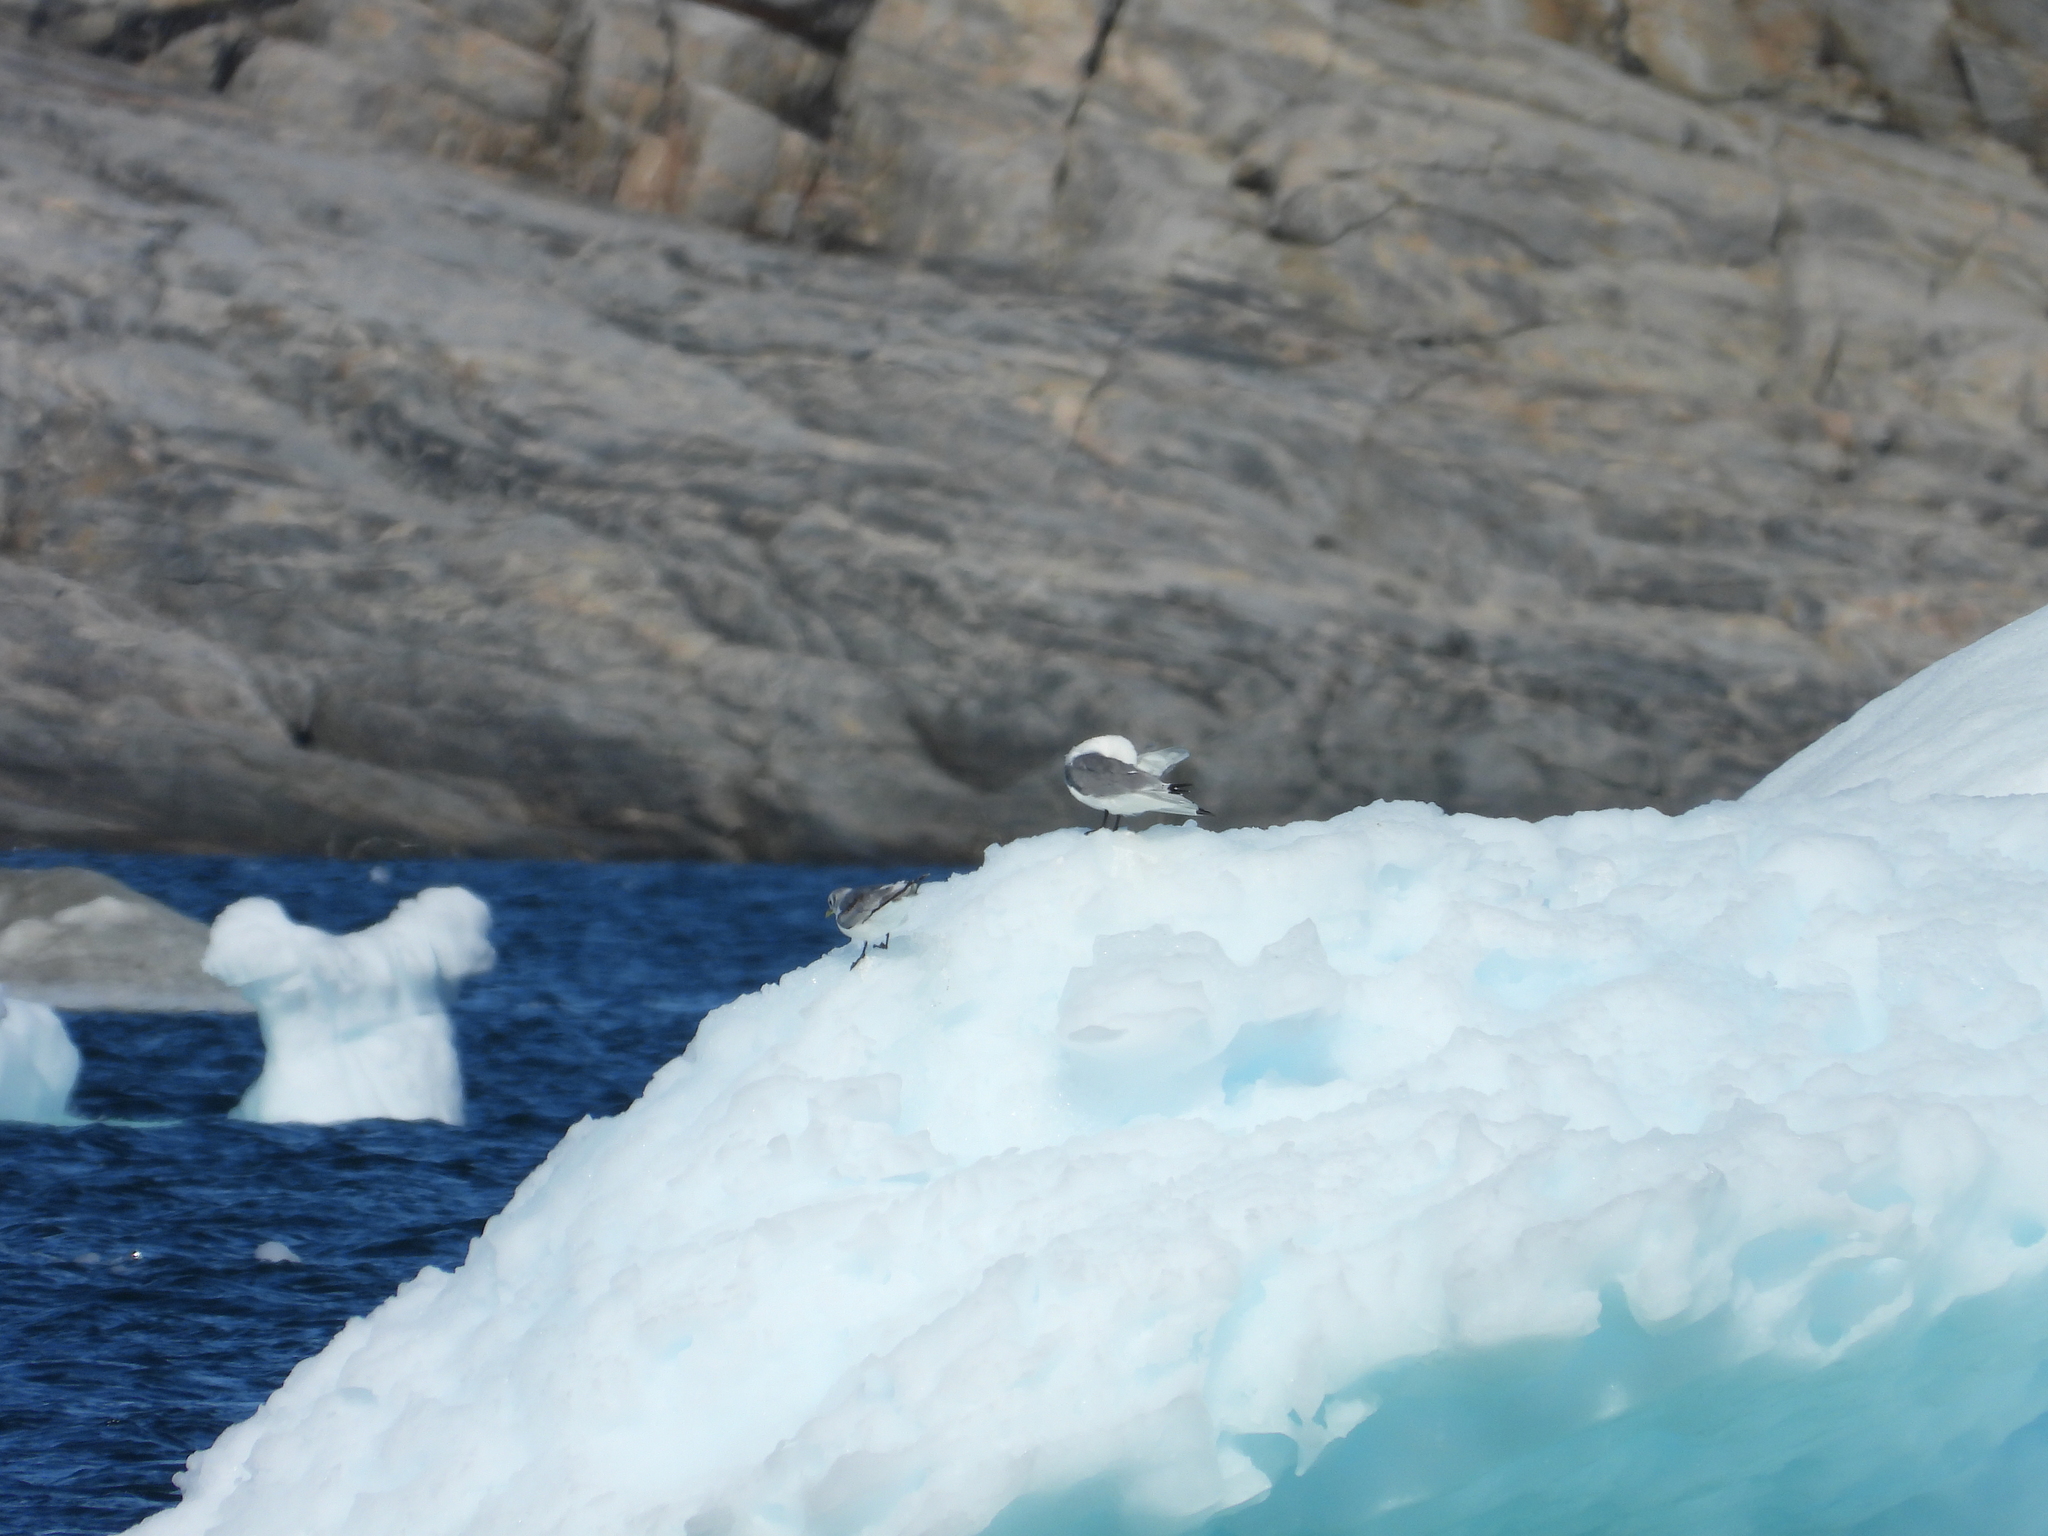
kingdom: Animalia
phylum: Chordata
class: Aves
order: Charadriiformes
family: Laridae
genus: Rissa
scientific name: Rissa tridactyla
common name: Black-legged kittiwake
